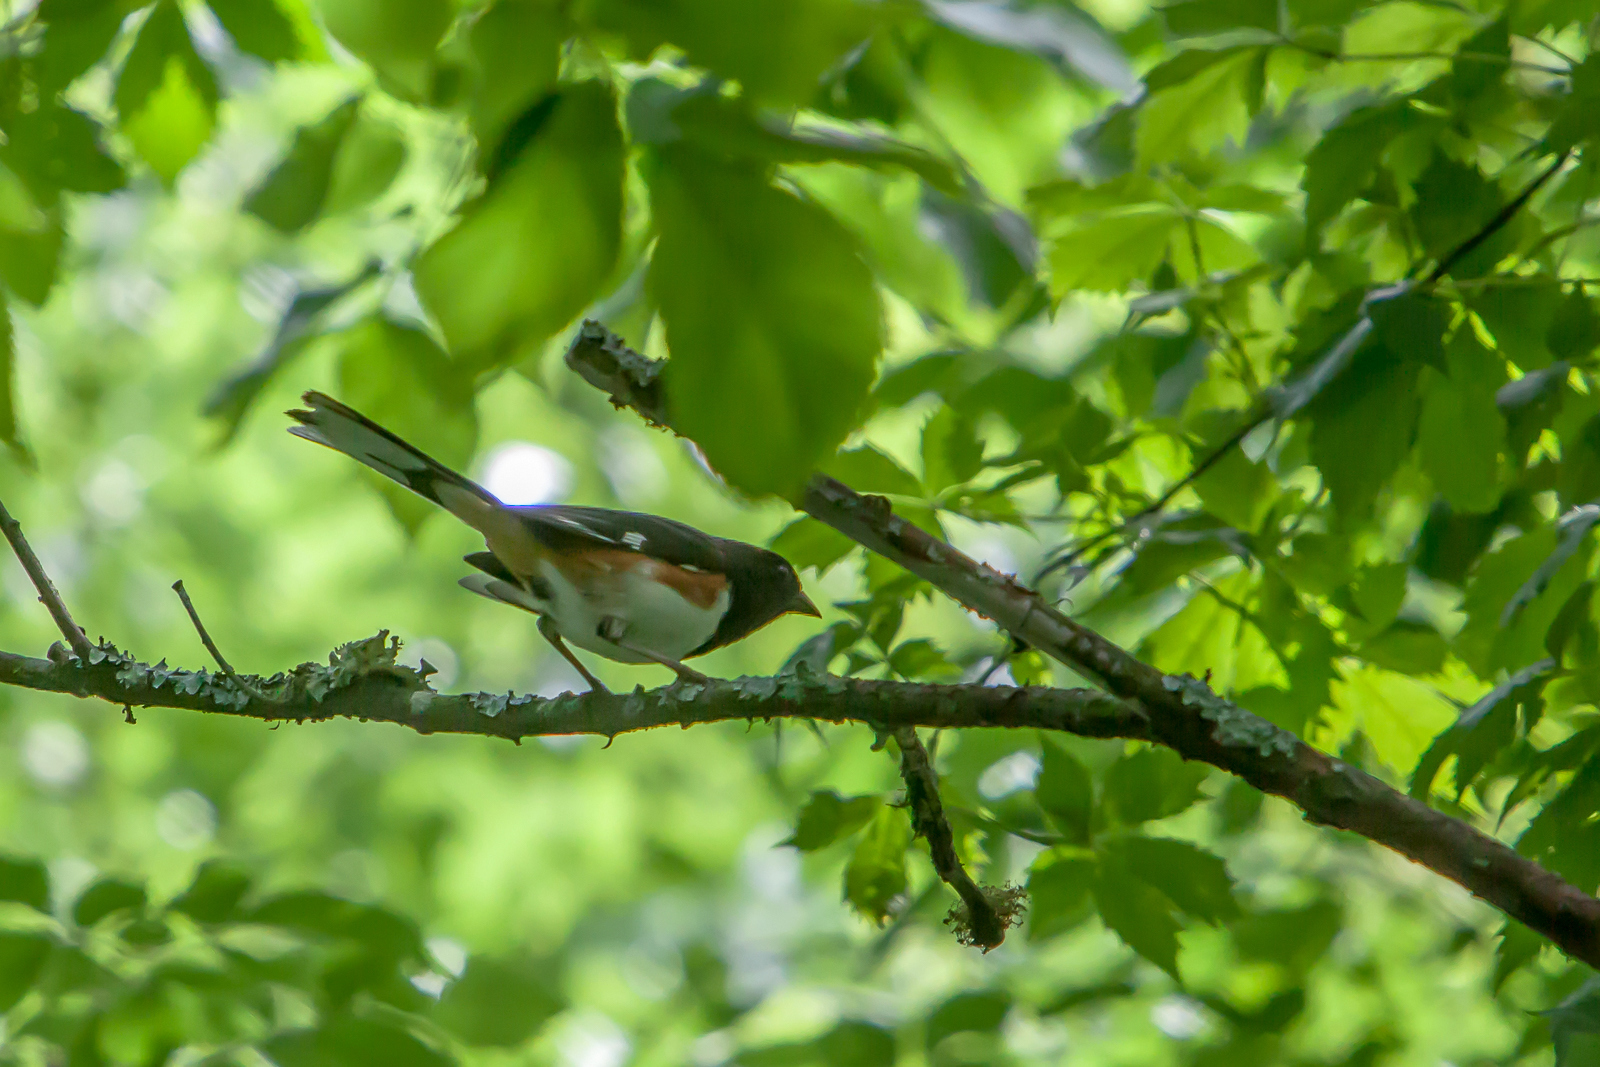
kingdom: Animalia
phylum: Chordata
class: Aves
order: Passeriformes
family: Passerellidae
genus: Pipilo
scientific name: Pipilo erythrophthalmus
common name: Eastern towhee
